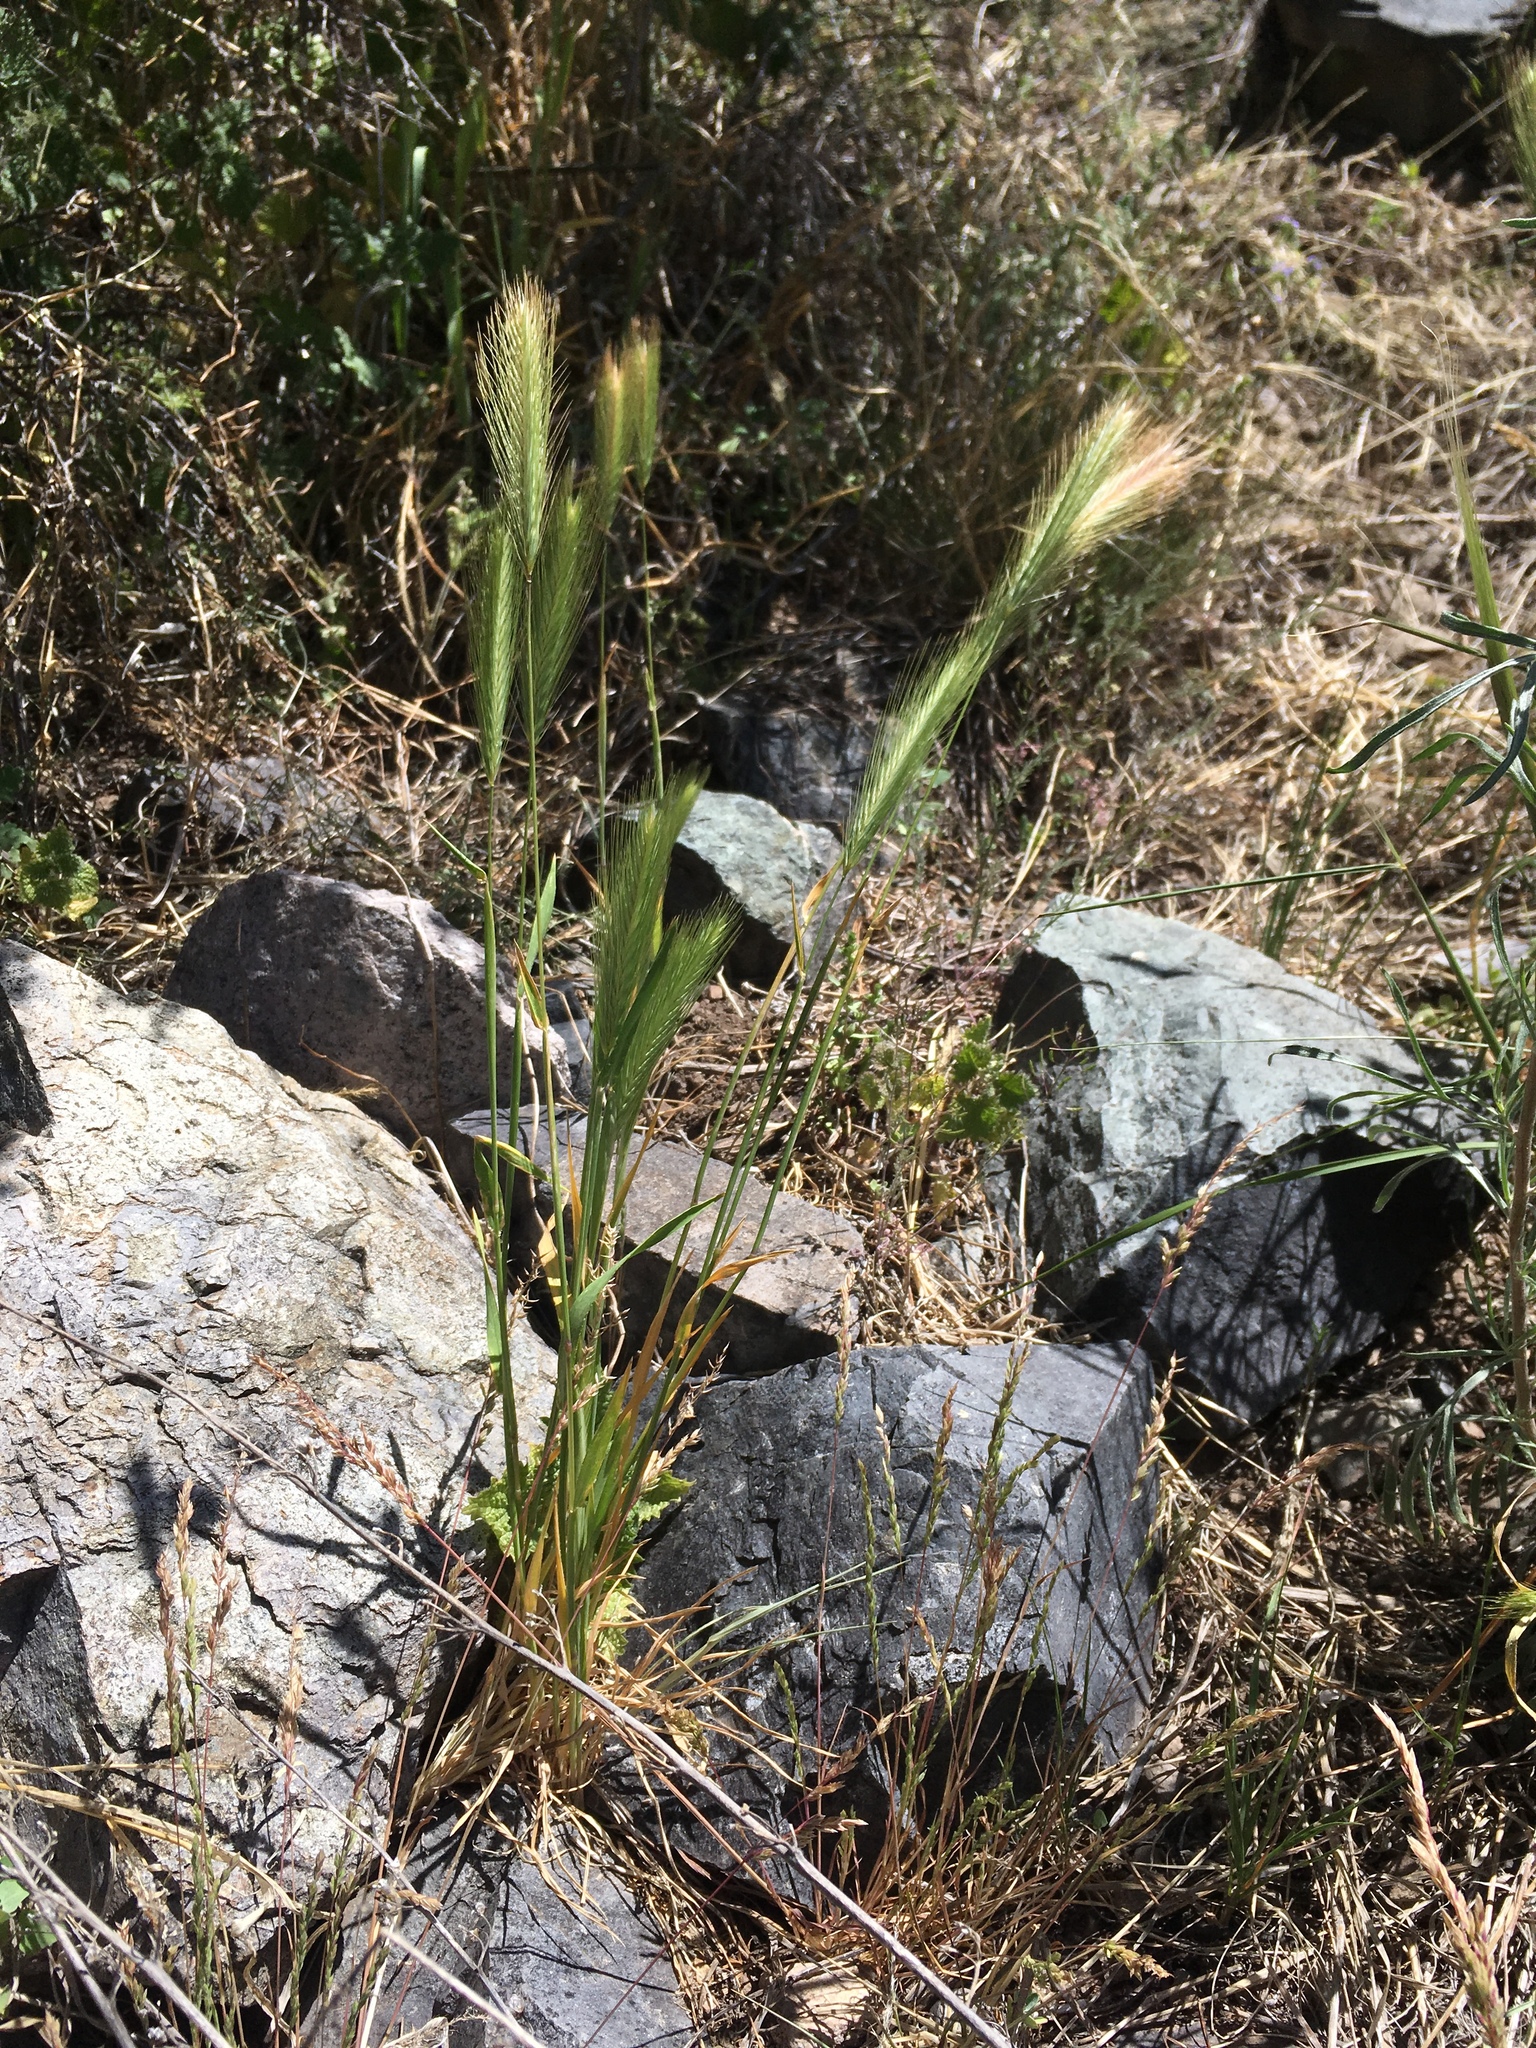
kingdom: Plantae
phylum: Tracheophyta
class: Liliopsida
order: Poales
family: Poaceae
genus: Hordeum
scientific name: Hordeum murinum
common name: Wall barley
